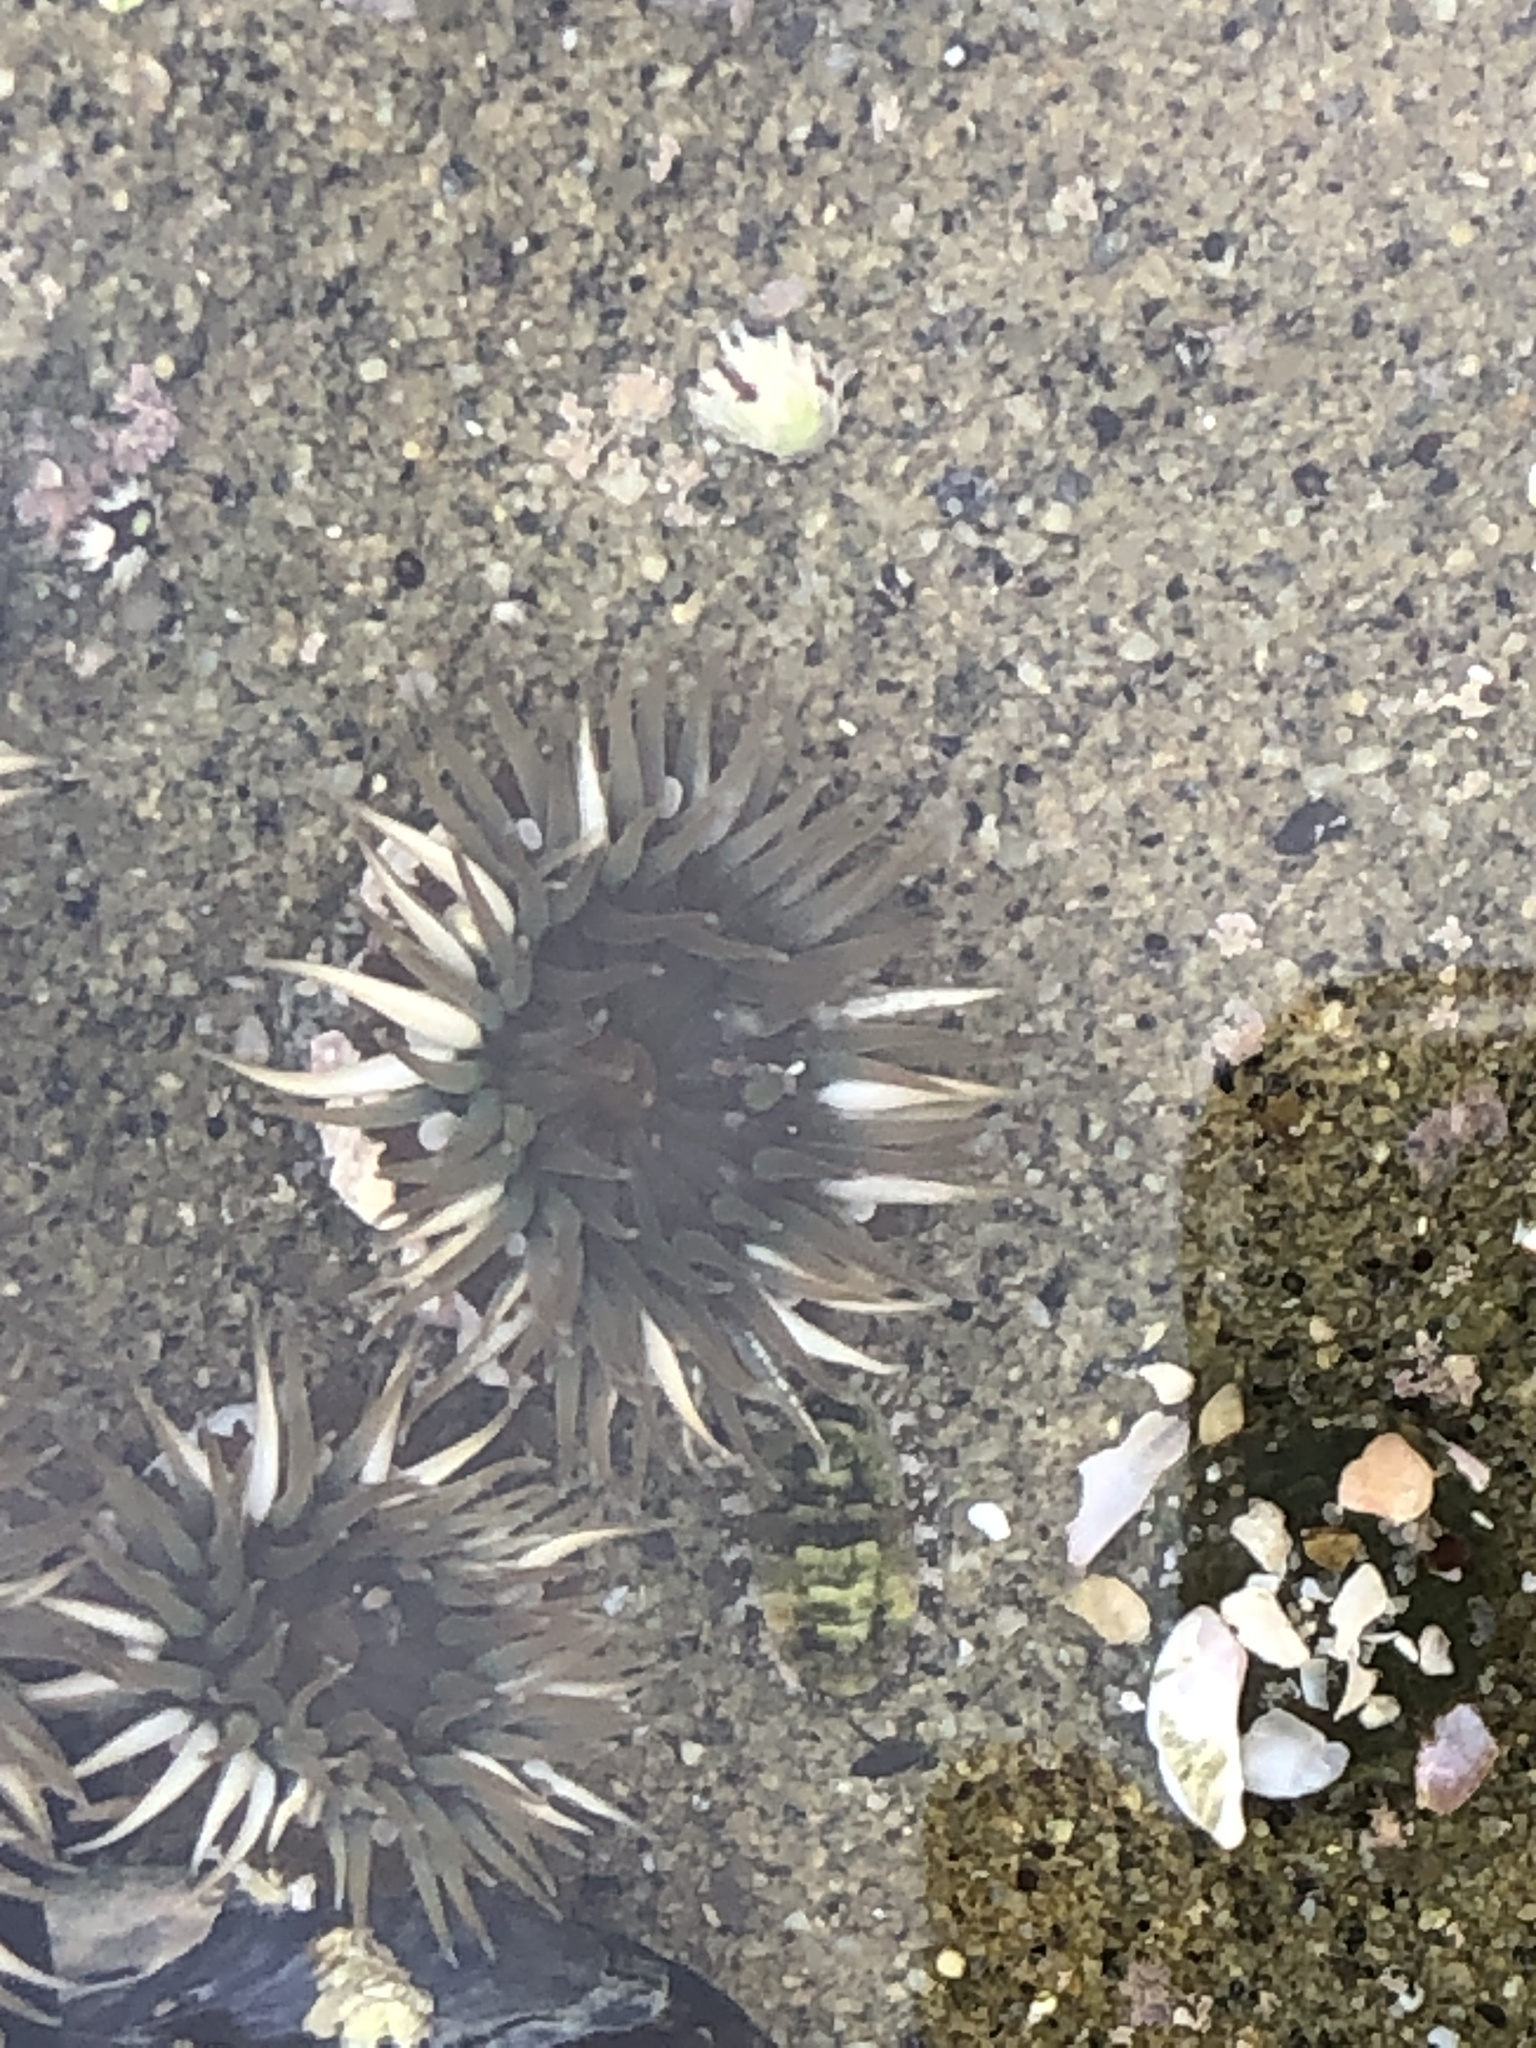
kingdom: Animalia
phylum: Cnidaria
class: Anthozoa
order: Actiniaria
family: Actiniidae
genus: Anthopleura
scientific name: Anthopleura elegantissima
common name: Clonal anemone
